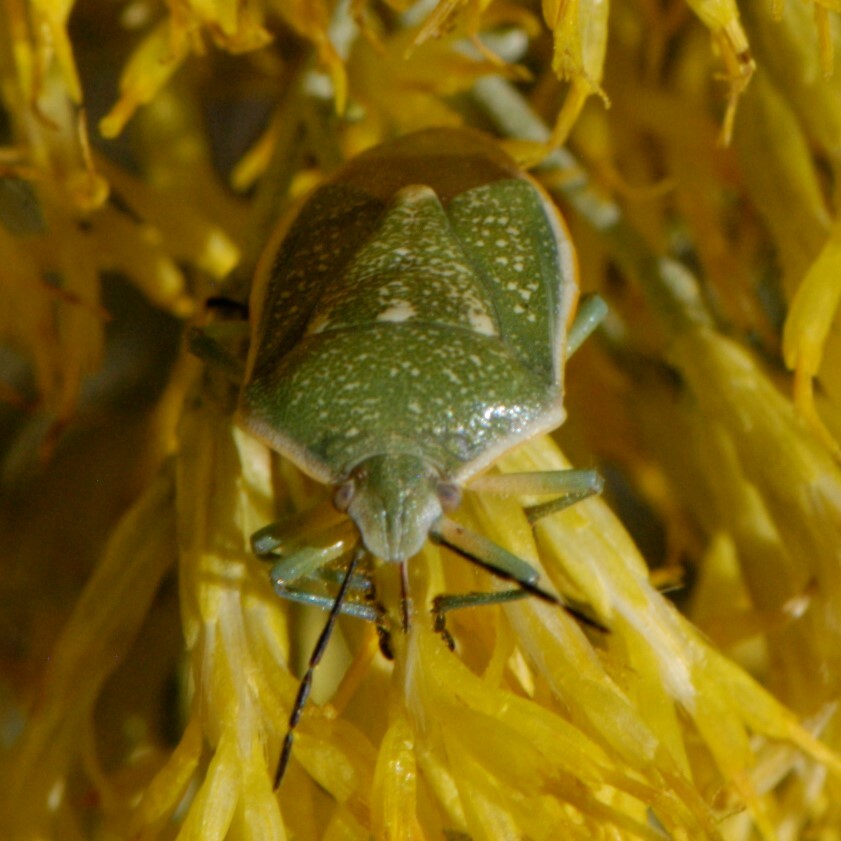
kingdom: Animalia
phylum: Arthropoda
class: Insecta
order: Hemiptera
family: Pentatomidae
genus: Chlorochroa
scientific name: Chlorochroa uhleri
